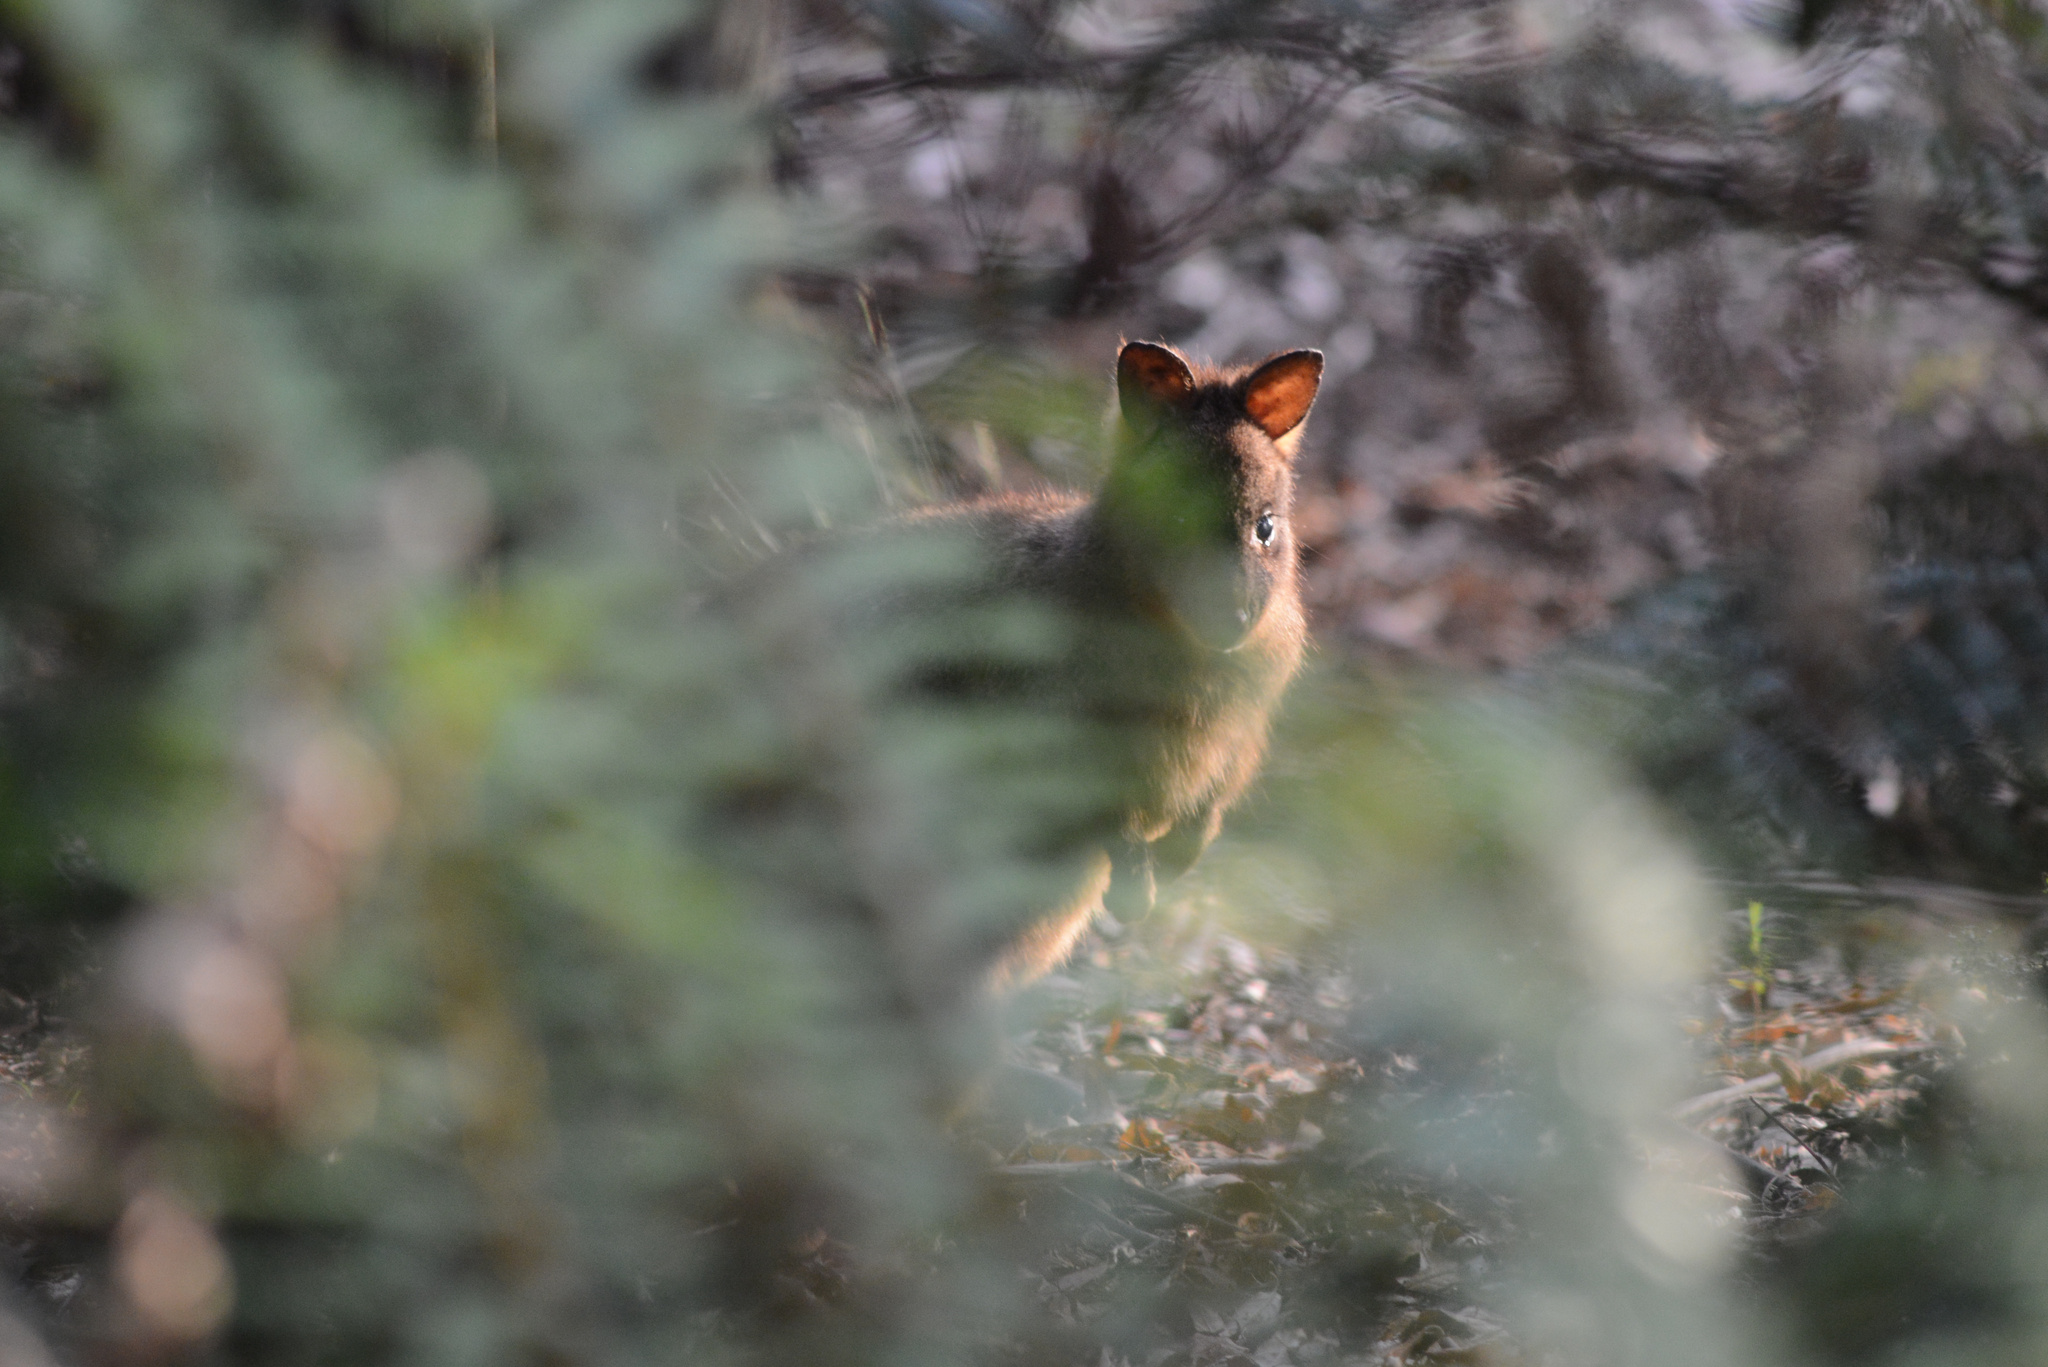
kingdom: Animalia
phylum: Chordata
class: Mammalia
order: Diprotodontia
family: Macropodidae
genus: Thylogale
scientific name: Thylogale billardierii
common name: Tasmanian pademelon
